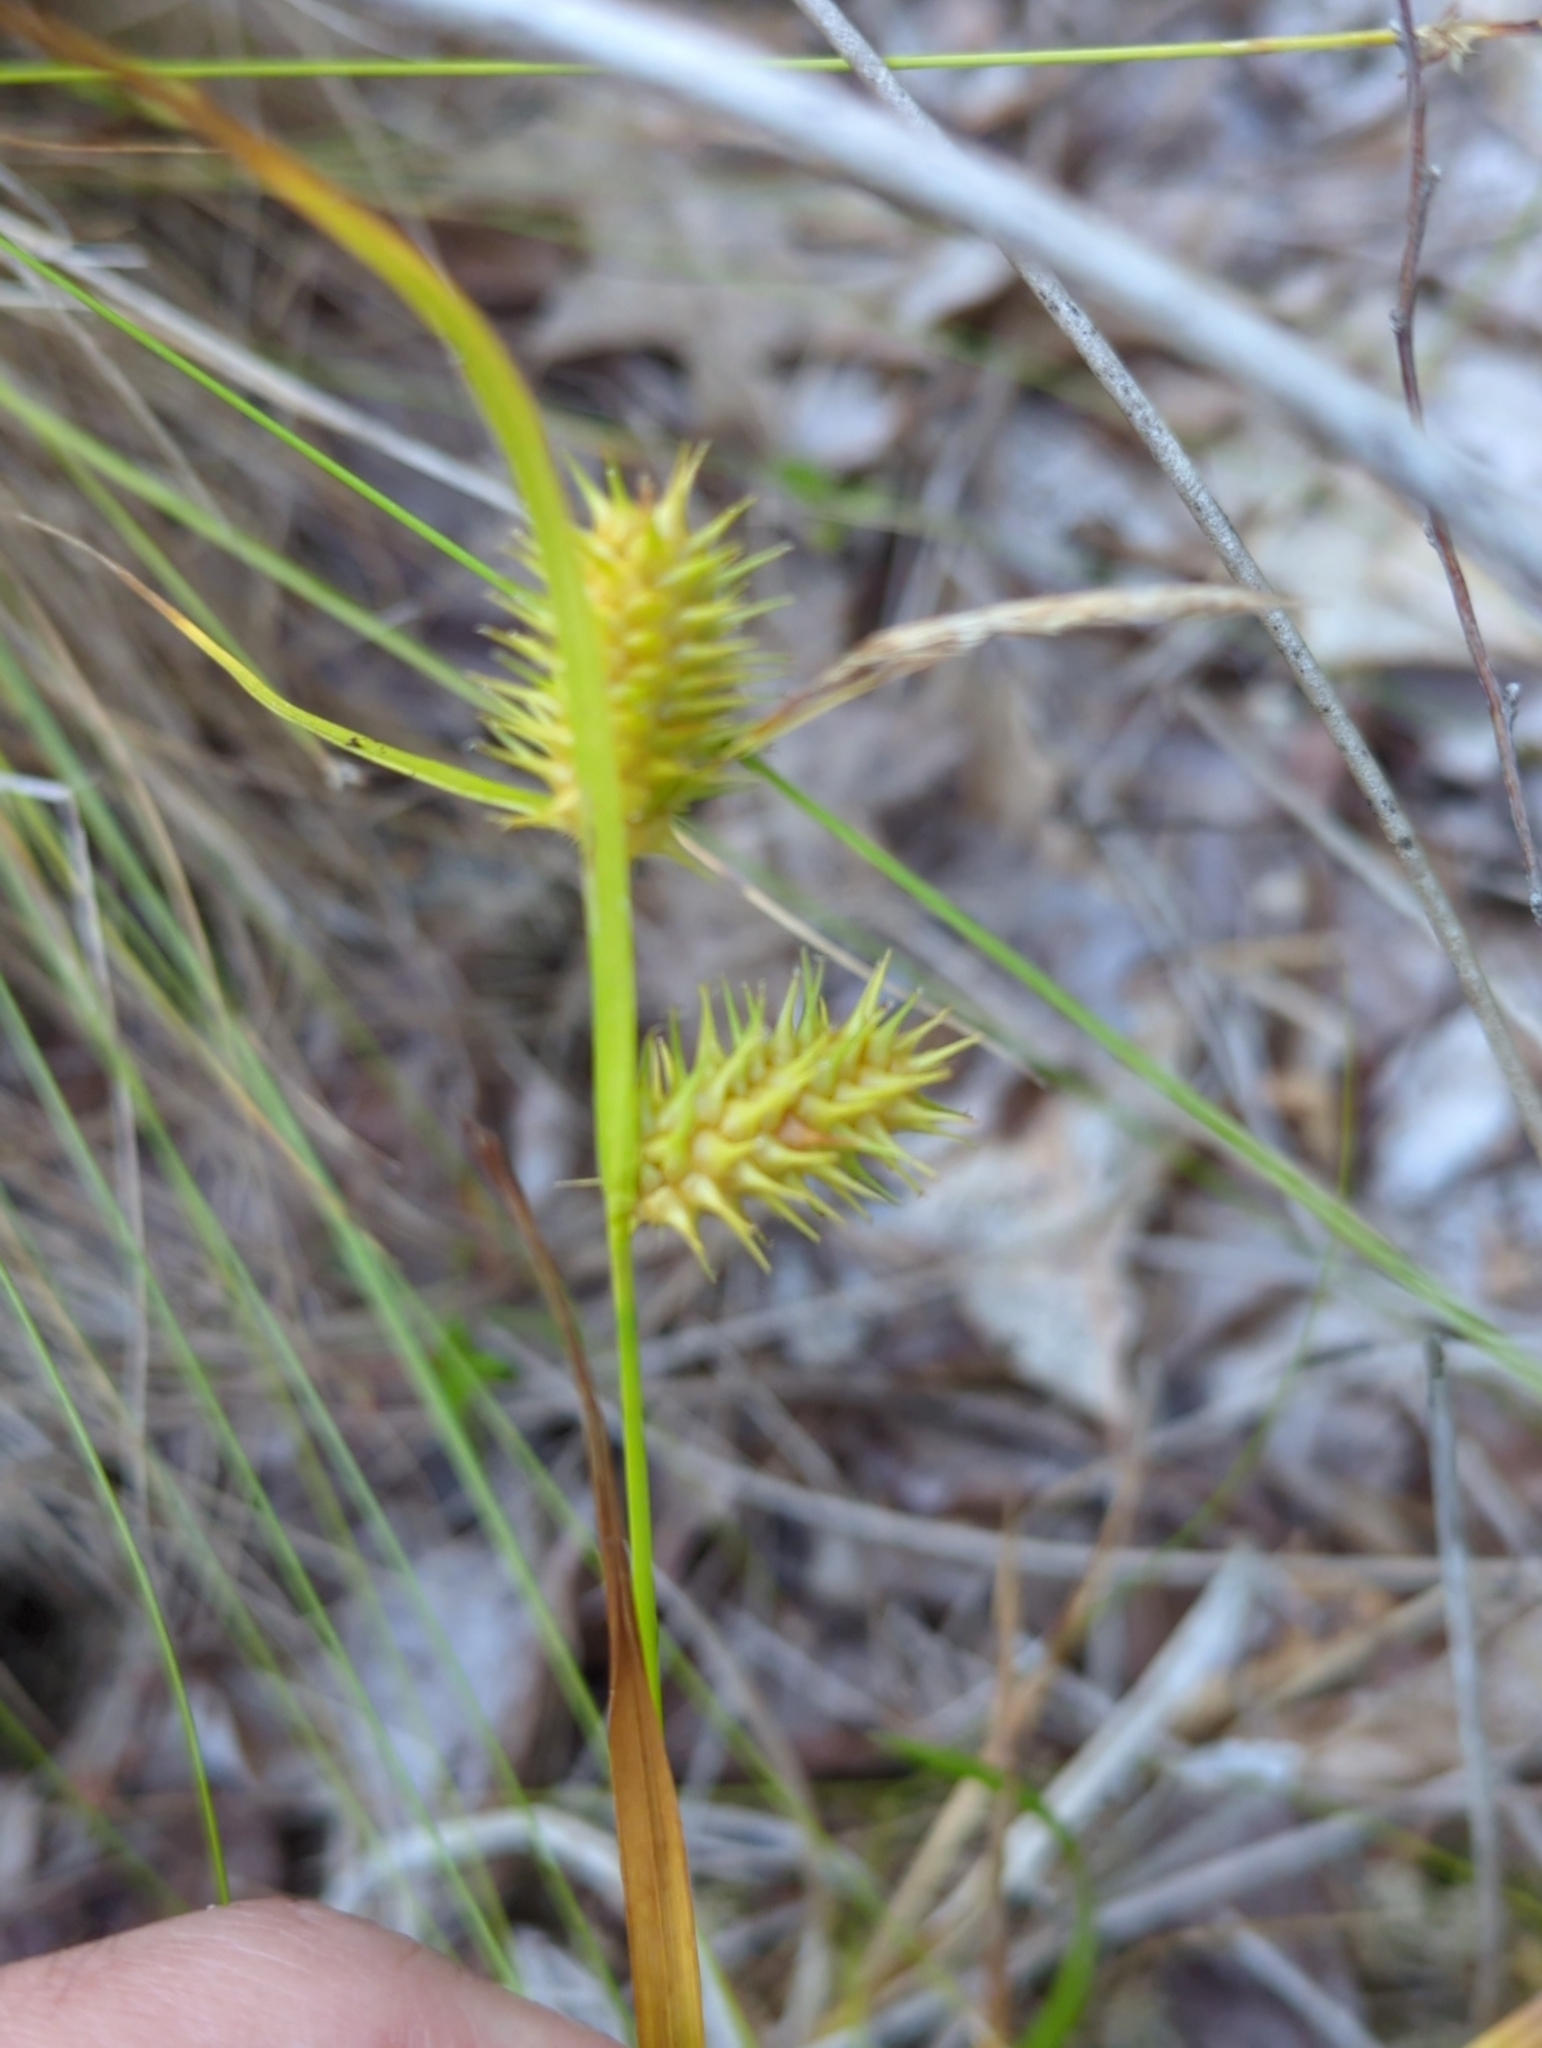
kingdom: Plantae
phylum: Tracheophyta
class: Liliopsida
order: Poales
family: Cyperaceae
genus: Carex
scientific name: Carex lurida
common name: Sallow sedge
